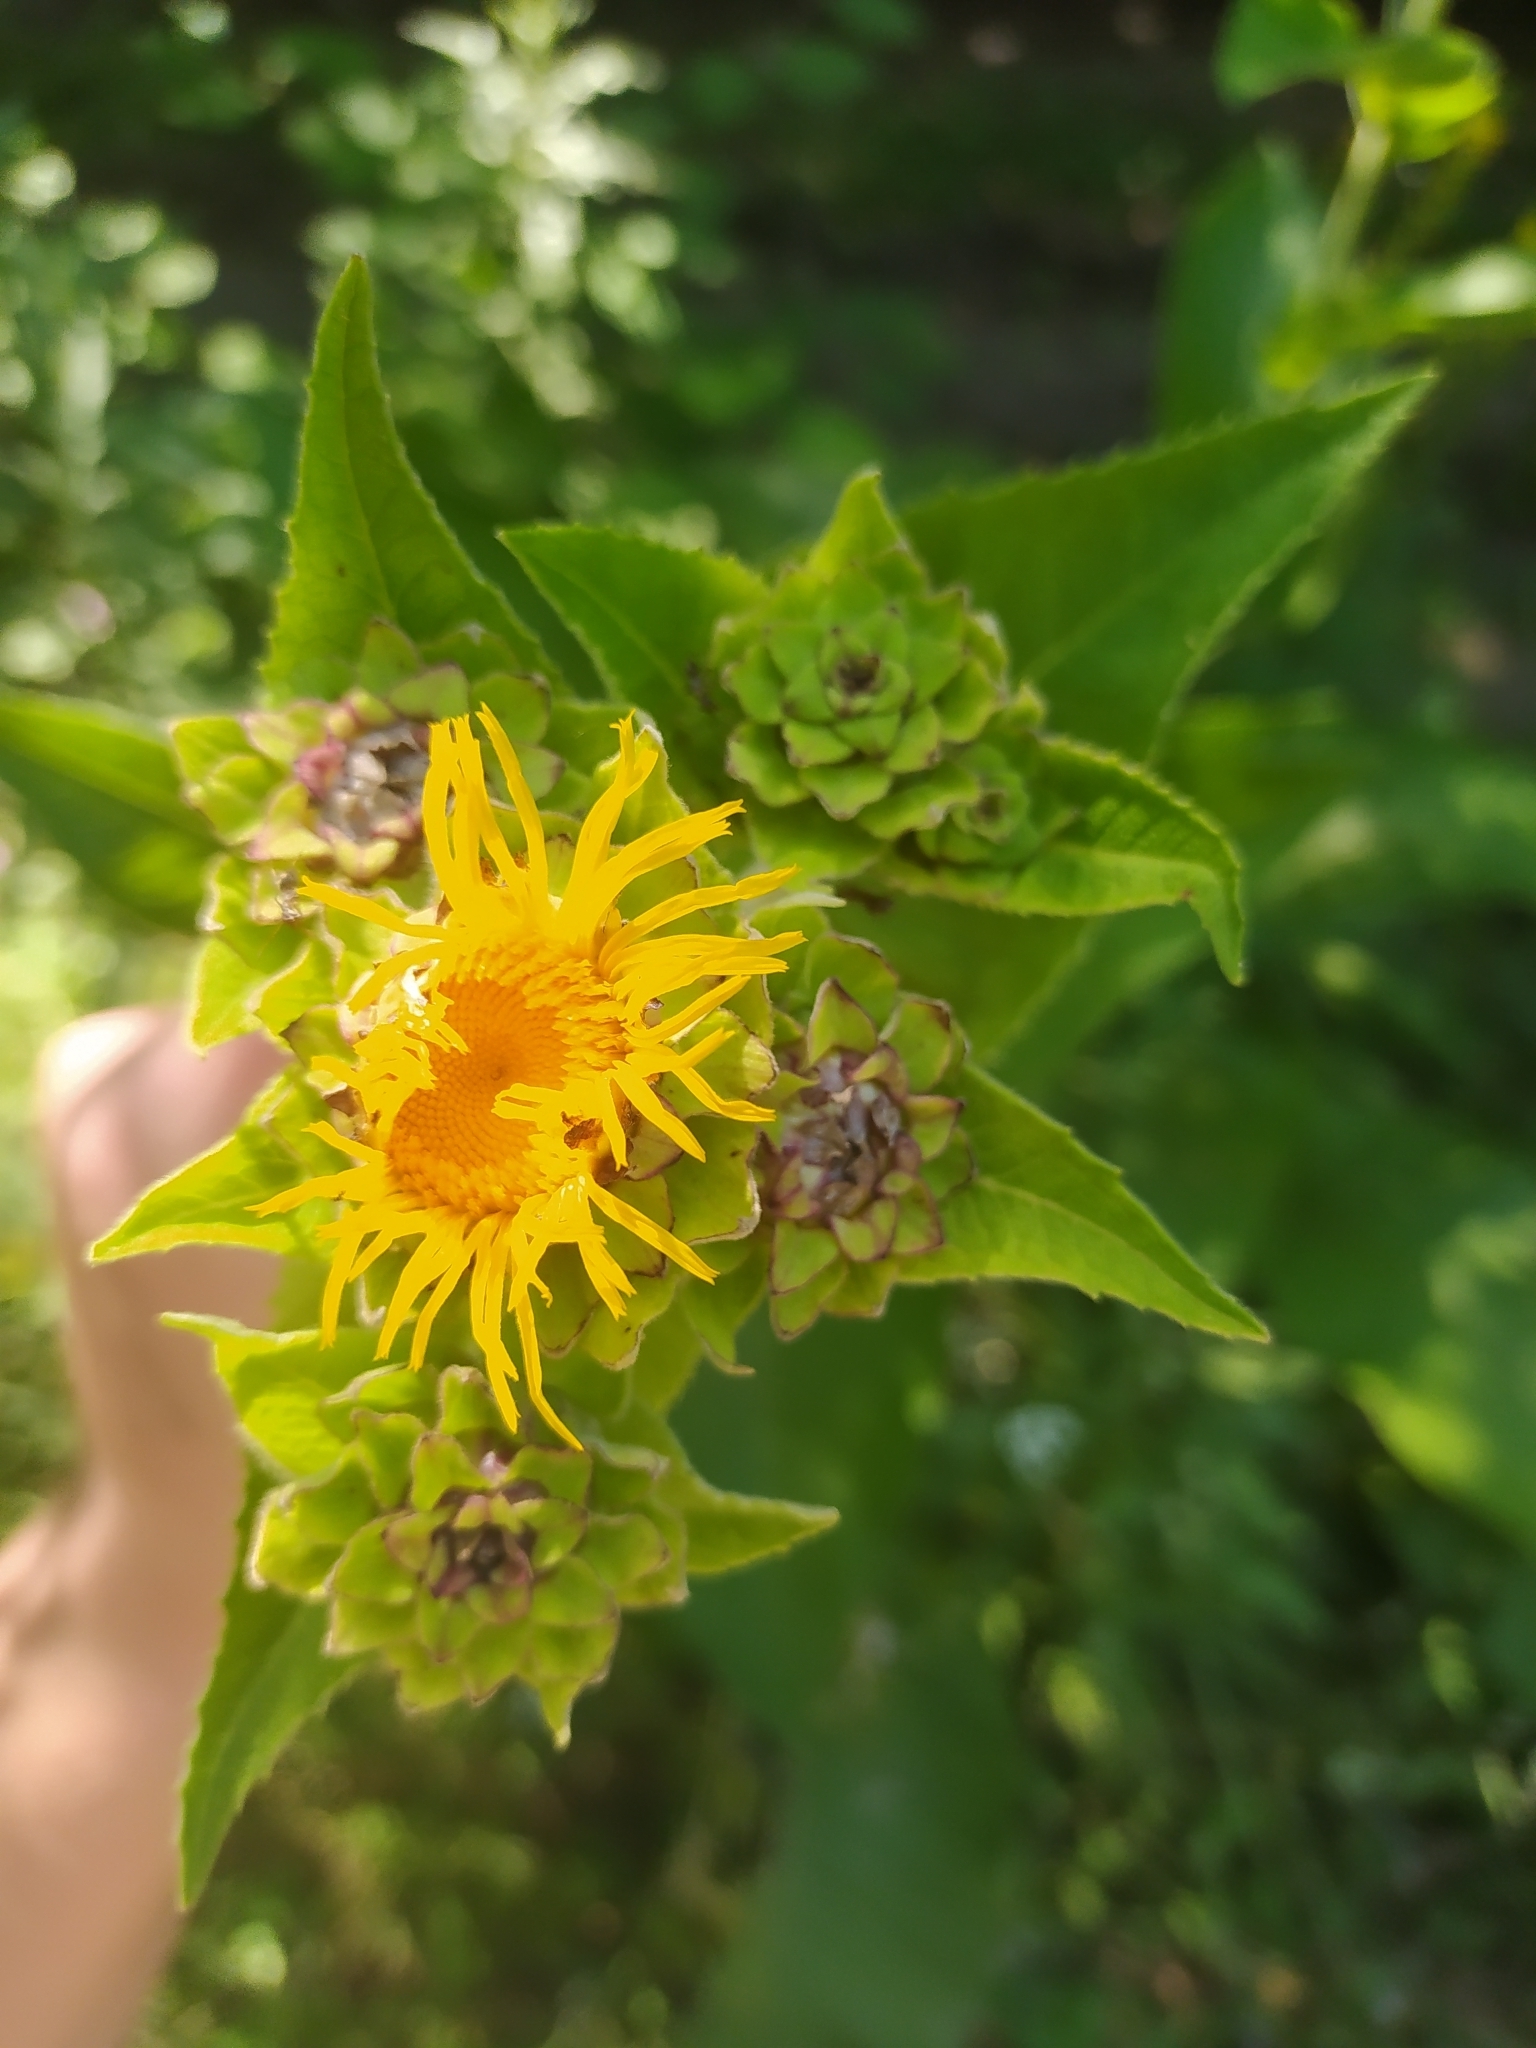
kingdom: Plantae
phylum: Tracheophyta
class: Magnoliopsida
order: Asterales
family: Asteraceae
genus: Inula
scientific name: Inula helenium
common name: Elecampane
